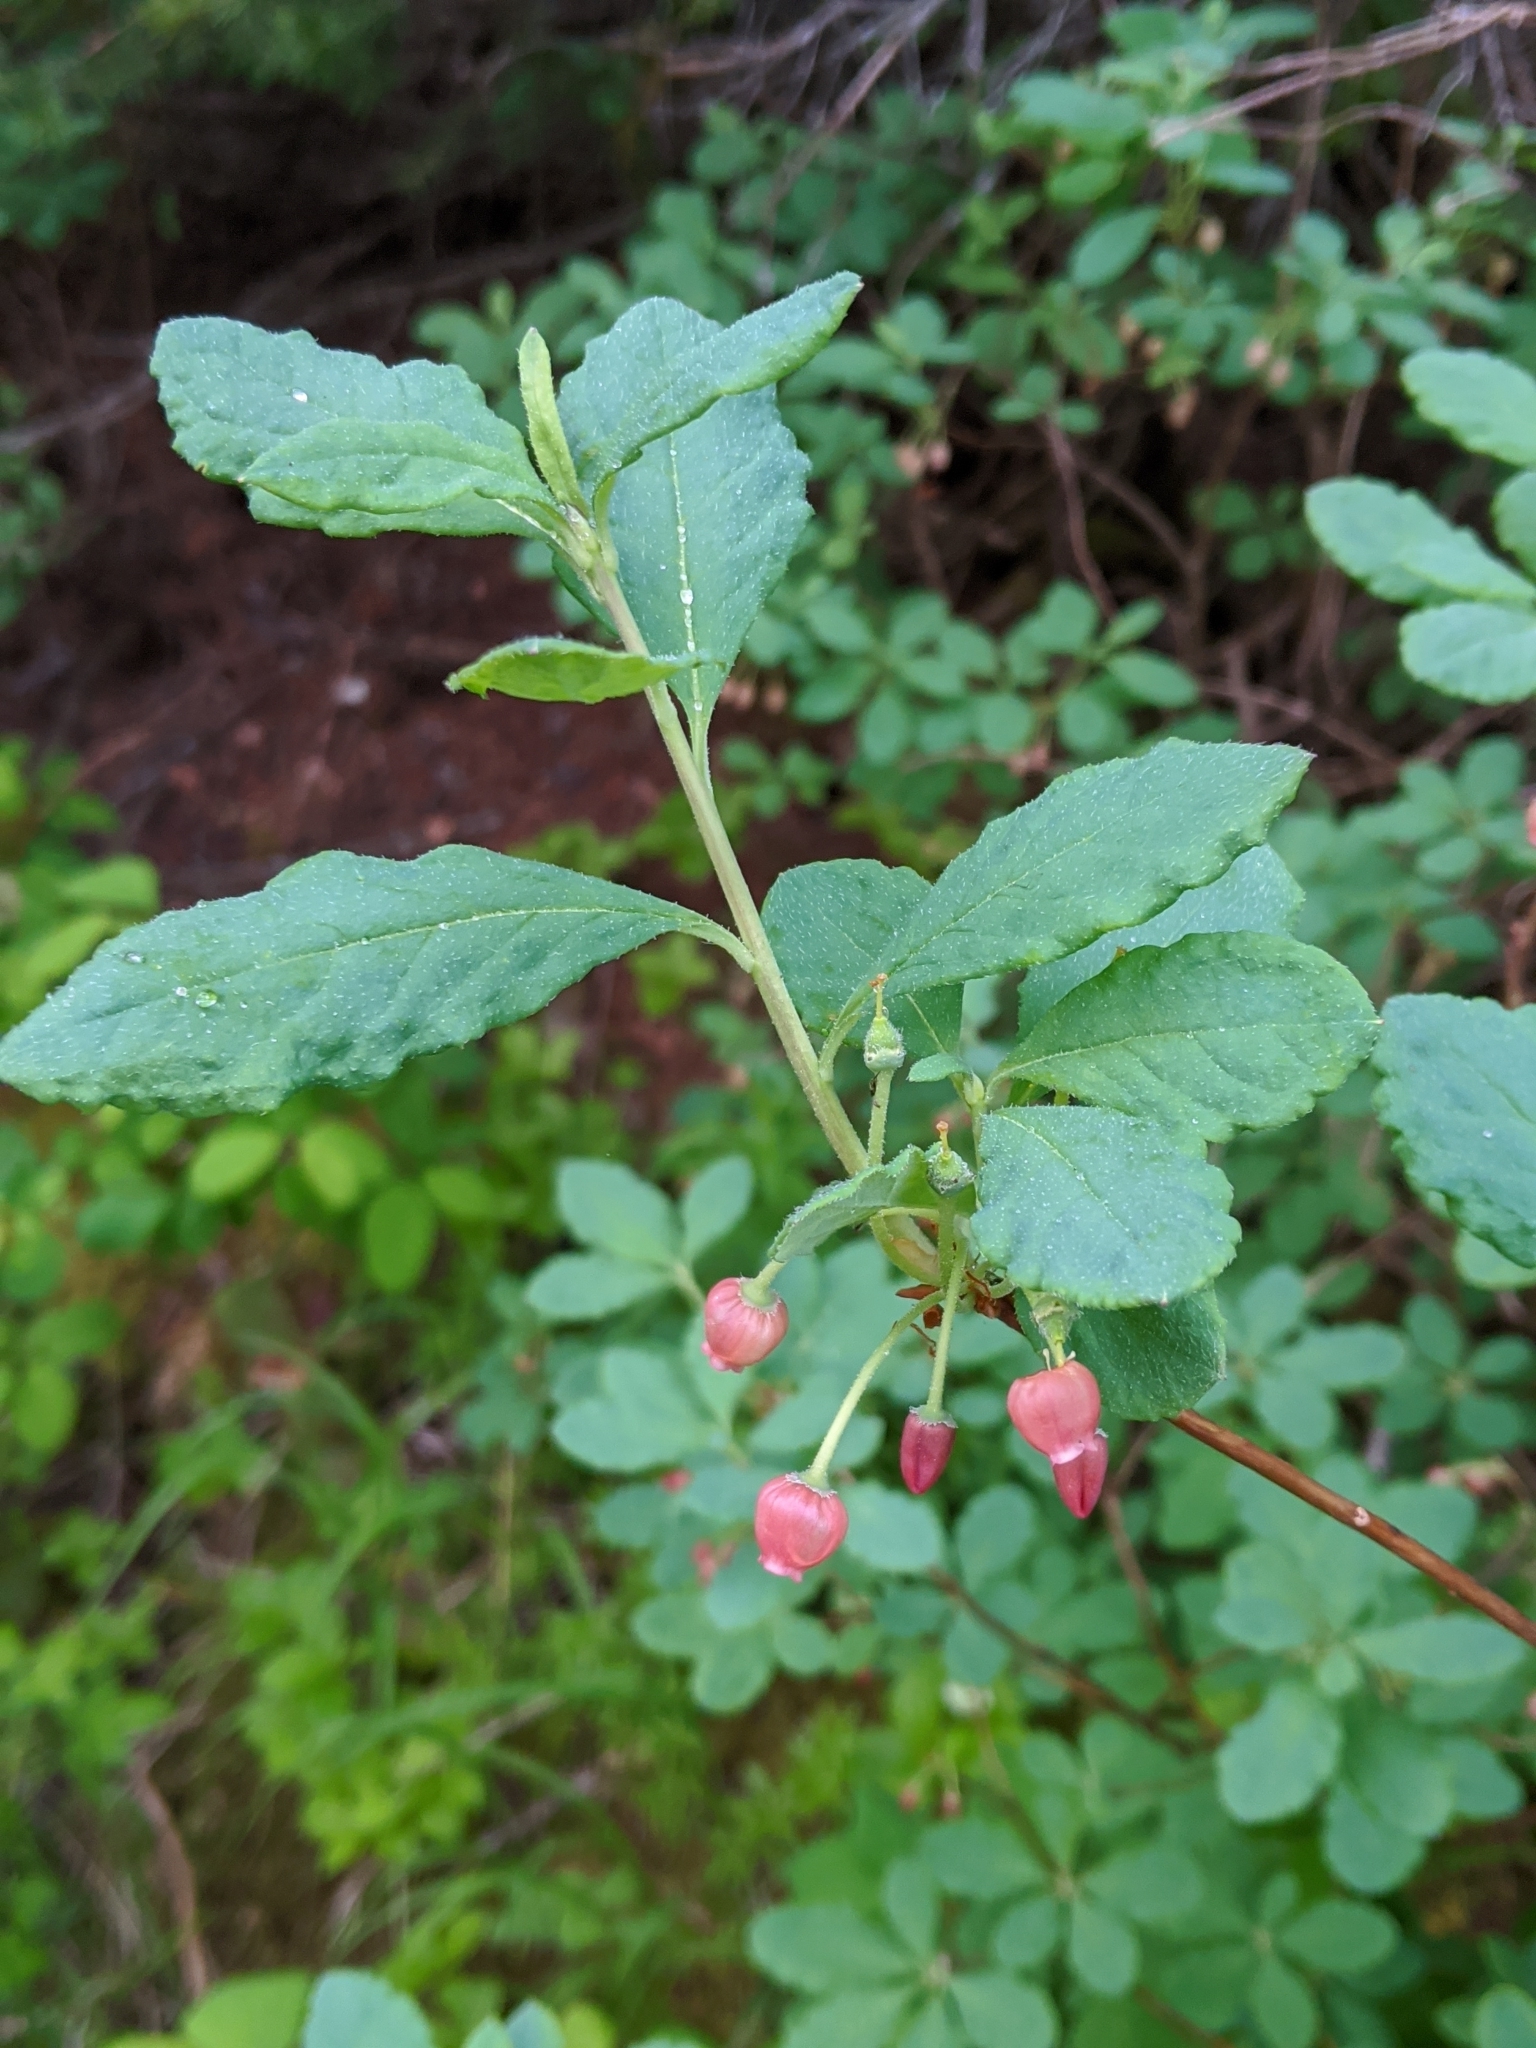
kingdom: Plantae
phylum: Tracheophyta
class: Magnoliopsida
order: Ericales
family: Ericaceae
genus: Rhododendron
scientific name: Rhododendron menziesii
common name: Pacific menziesia
